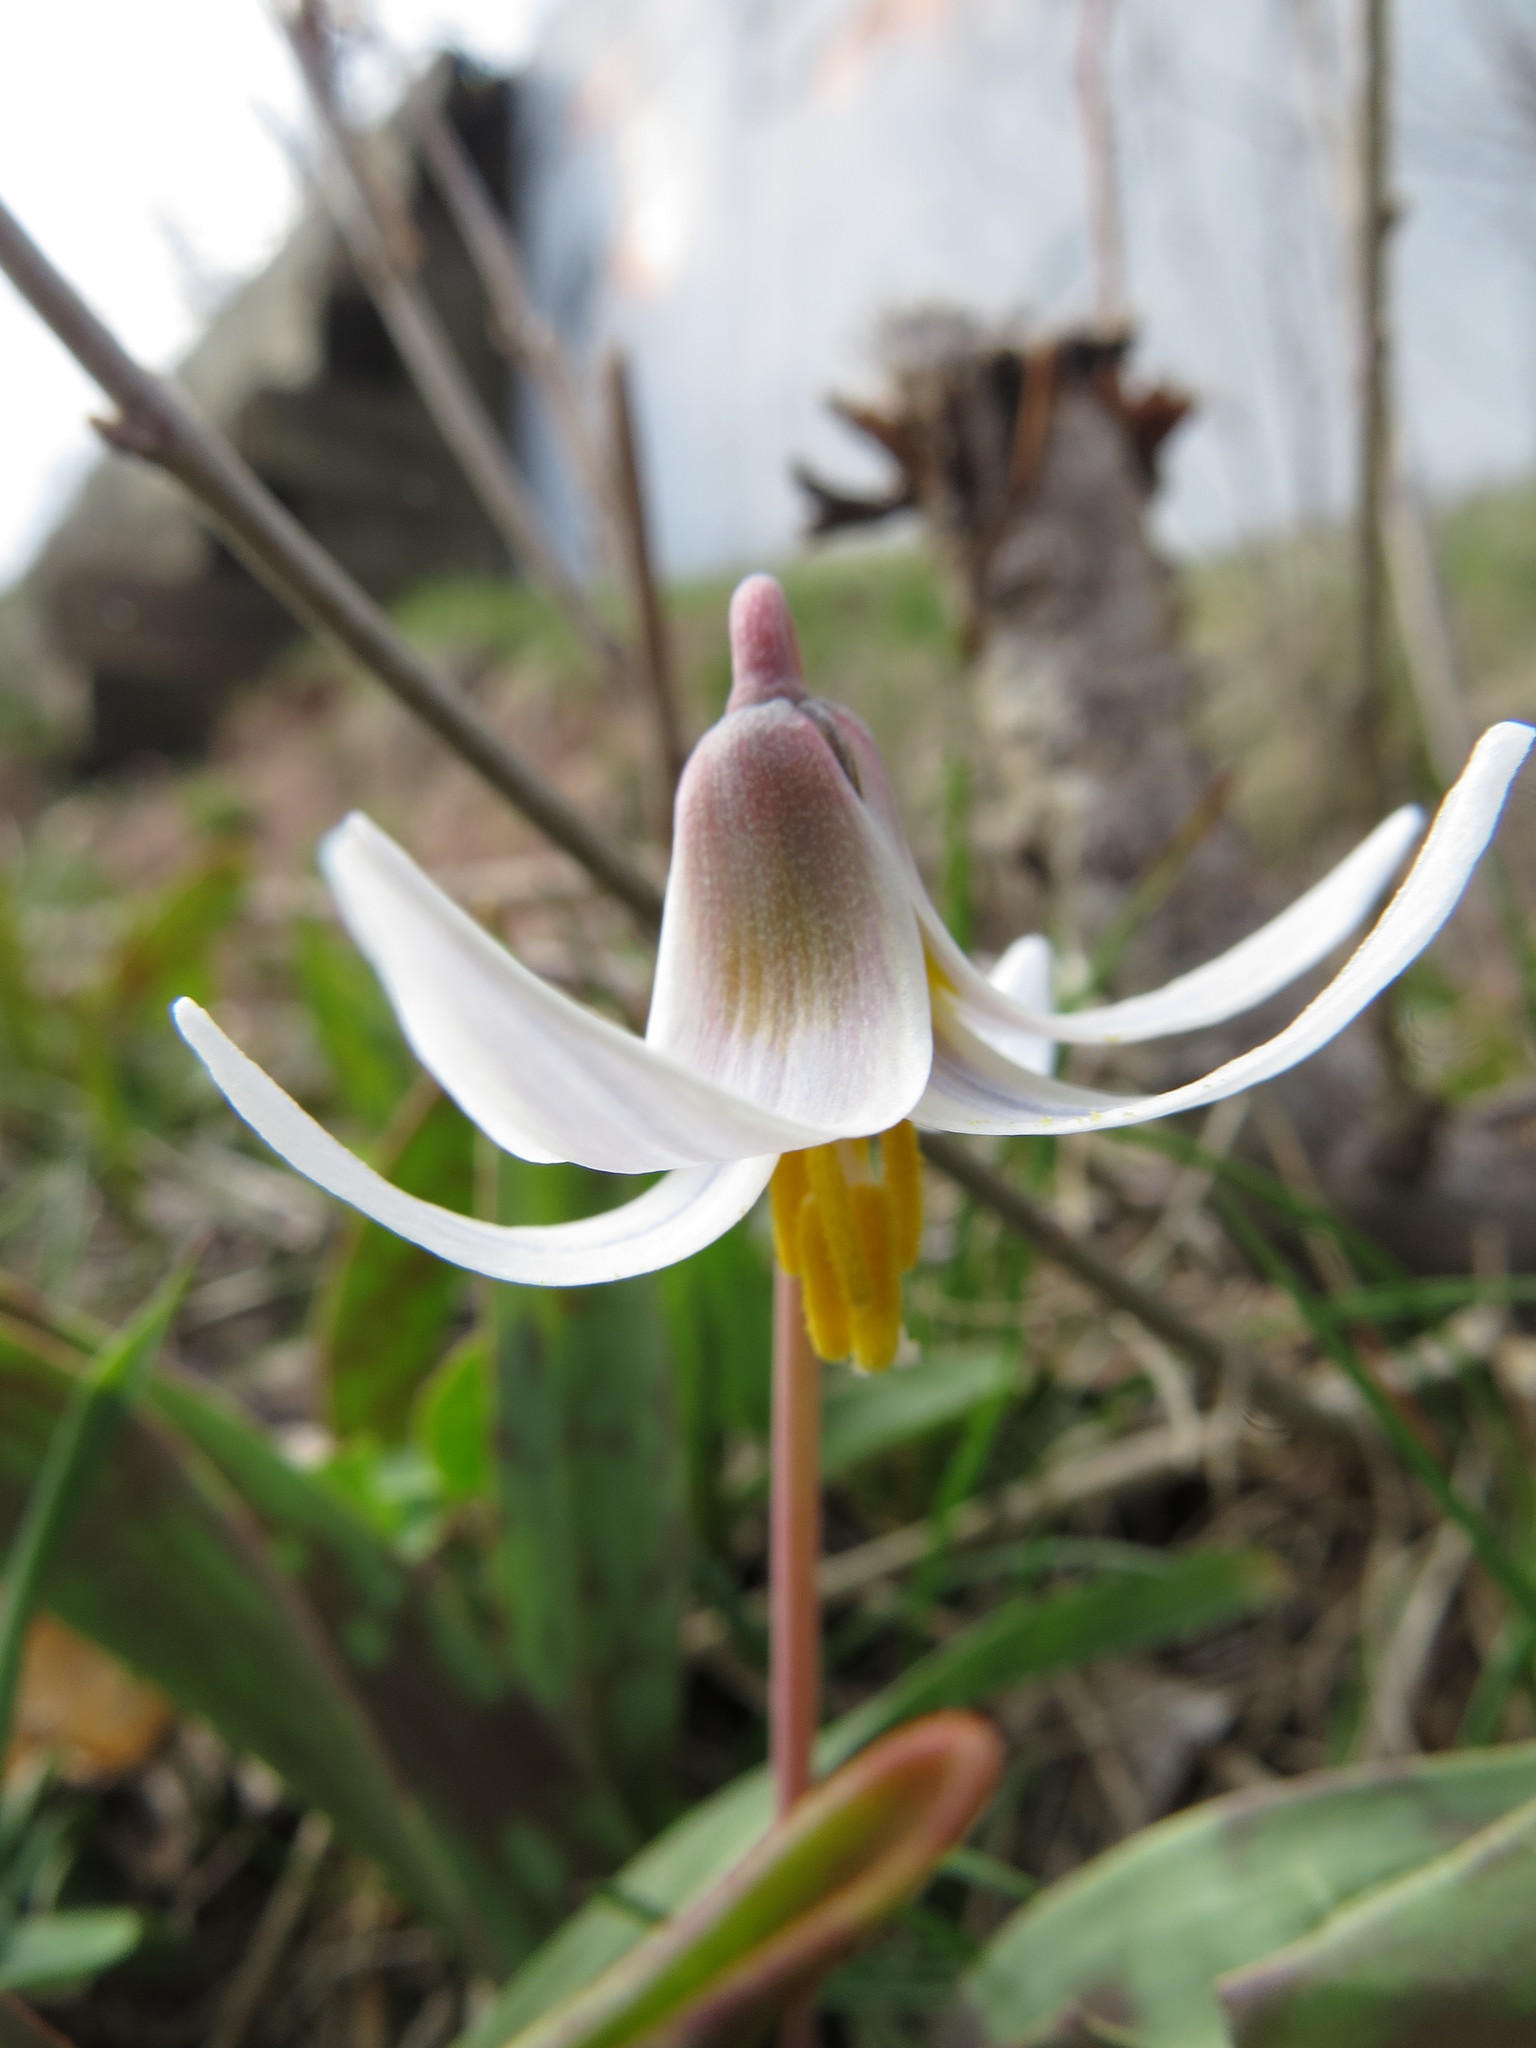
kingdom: Plantae
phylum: Tracheophyta
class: Liliopsida
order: Liliales
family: Liliaceae
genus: Erythronium
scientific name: Erythronium albidum
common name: White trout-lily
